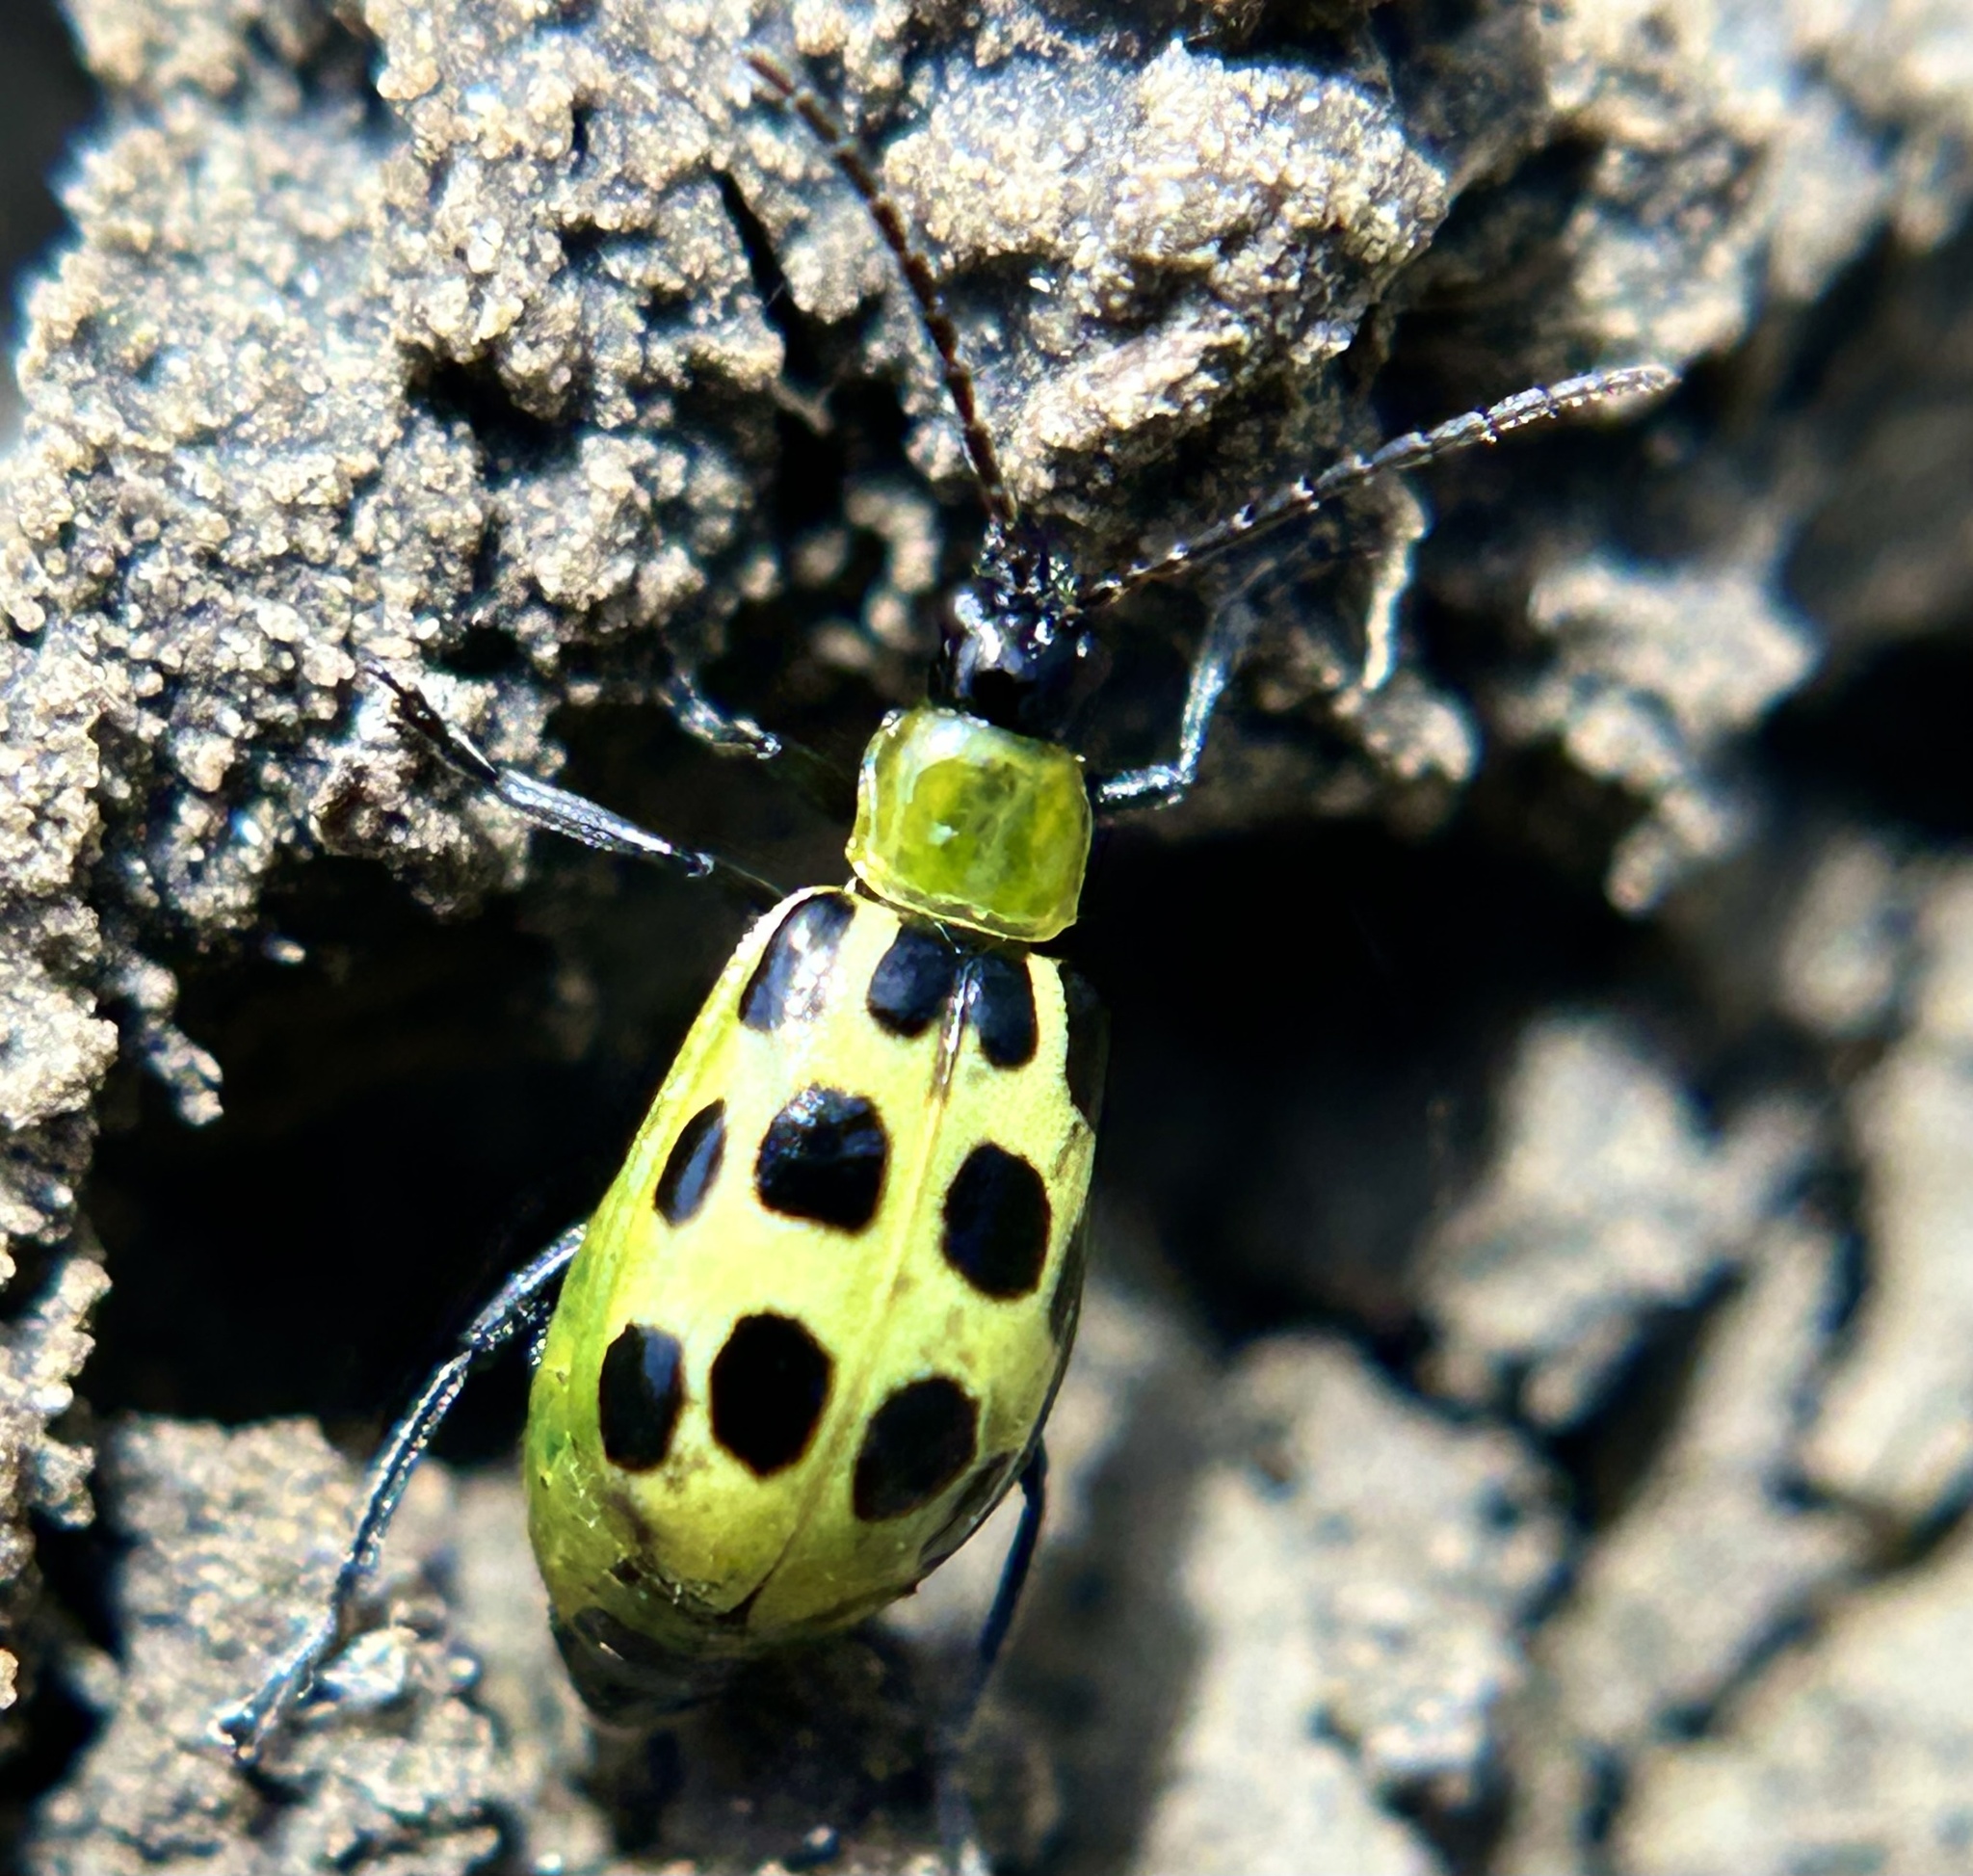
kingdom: Animalia
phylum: Arthropoda
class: Insecta
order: Coleoptera
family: Chrysomelidae
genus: Diabrotica
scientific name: Diabrotica undecimpunctata
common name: Spotted cucumber beetle
